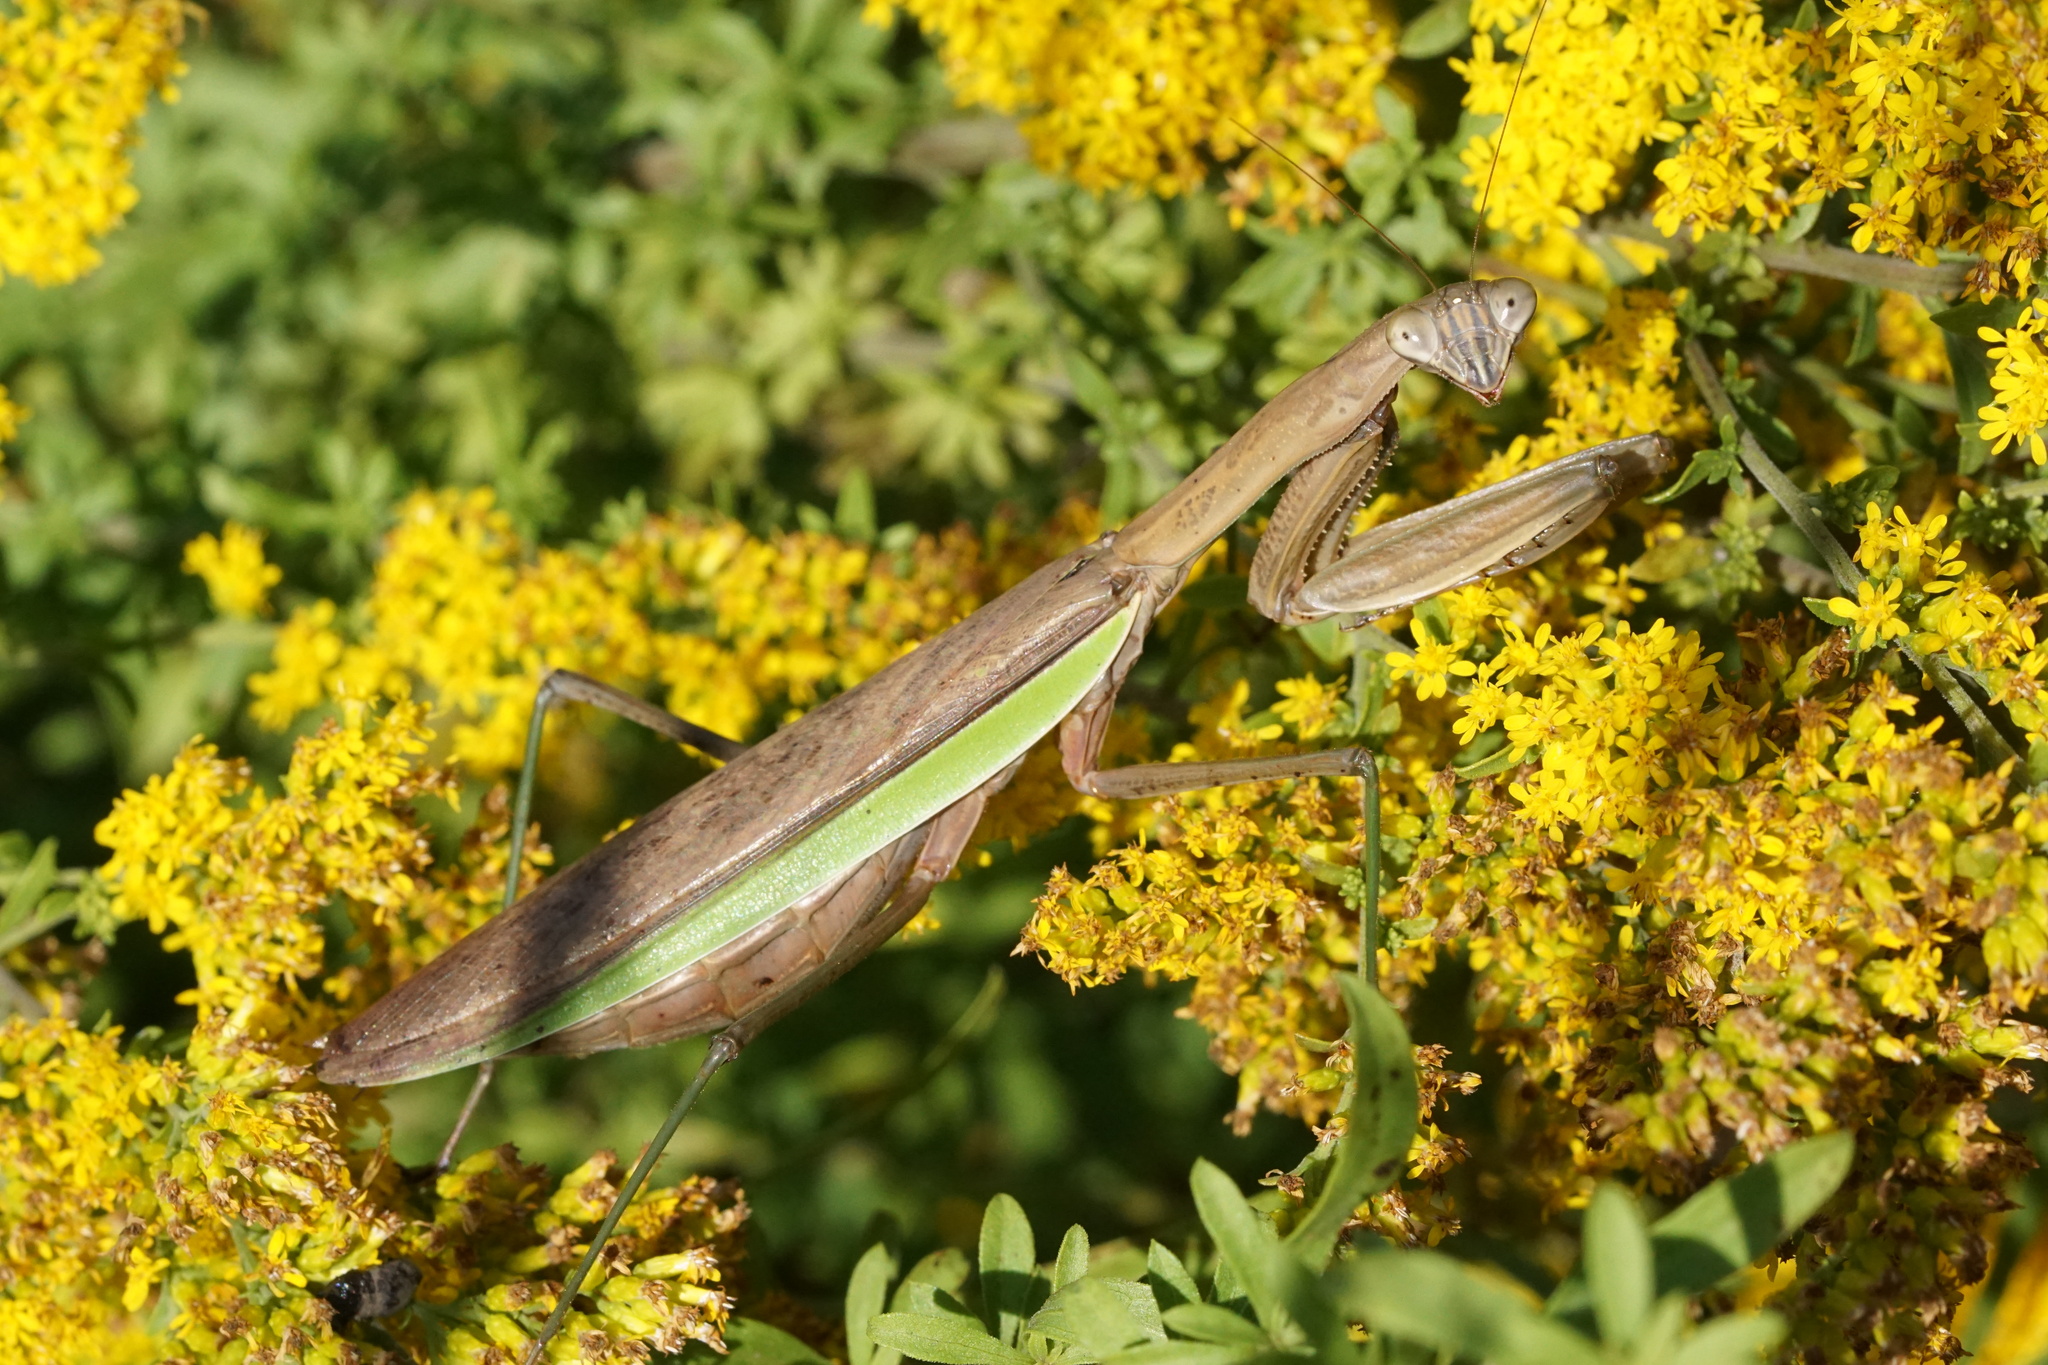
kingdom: Animalia
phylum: Arthropoda
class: Insecta
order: Mantodea
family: Mantidae
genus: Tenodera
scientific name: Tenodera sinensis
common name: Chinese mantis
